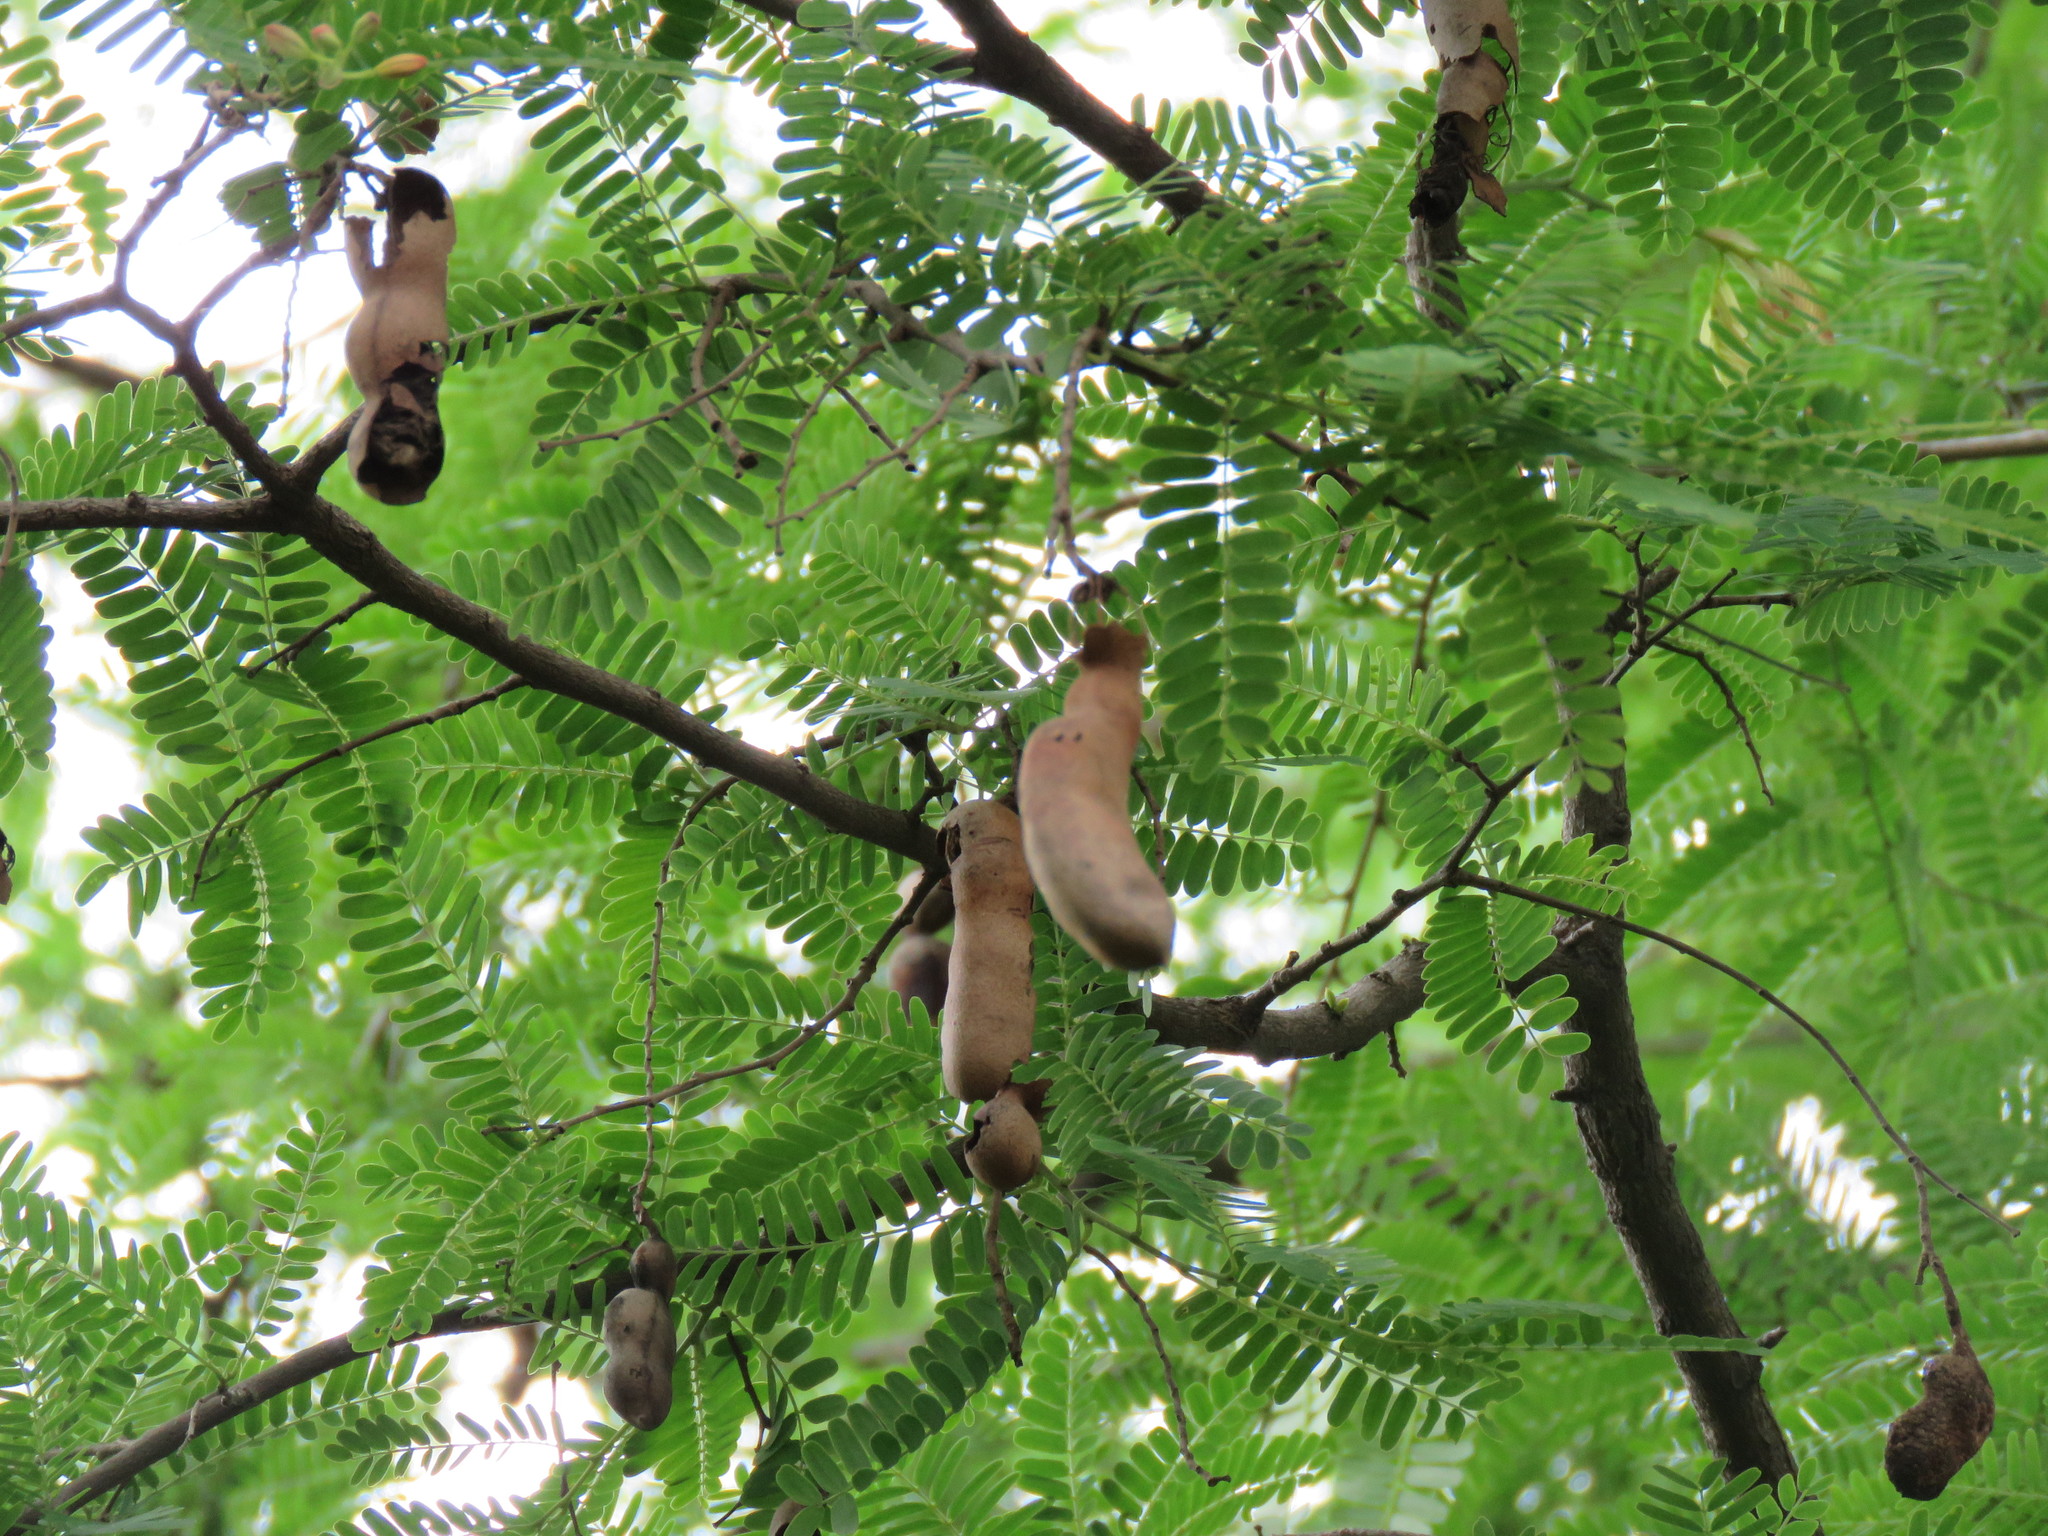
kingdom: Plantae
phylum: Tracheophyta
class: Magnoliopsida
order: Fabales
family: Fabaceae
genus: Tamarindus
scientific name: Tamarindus indica
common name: Tamarind
